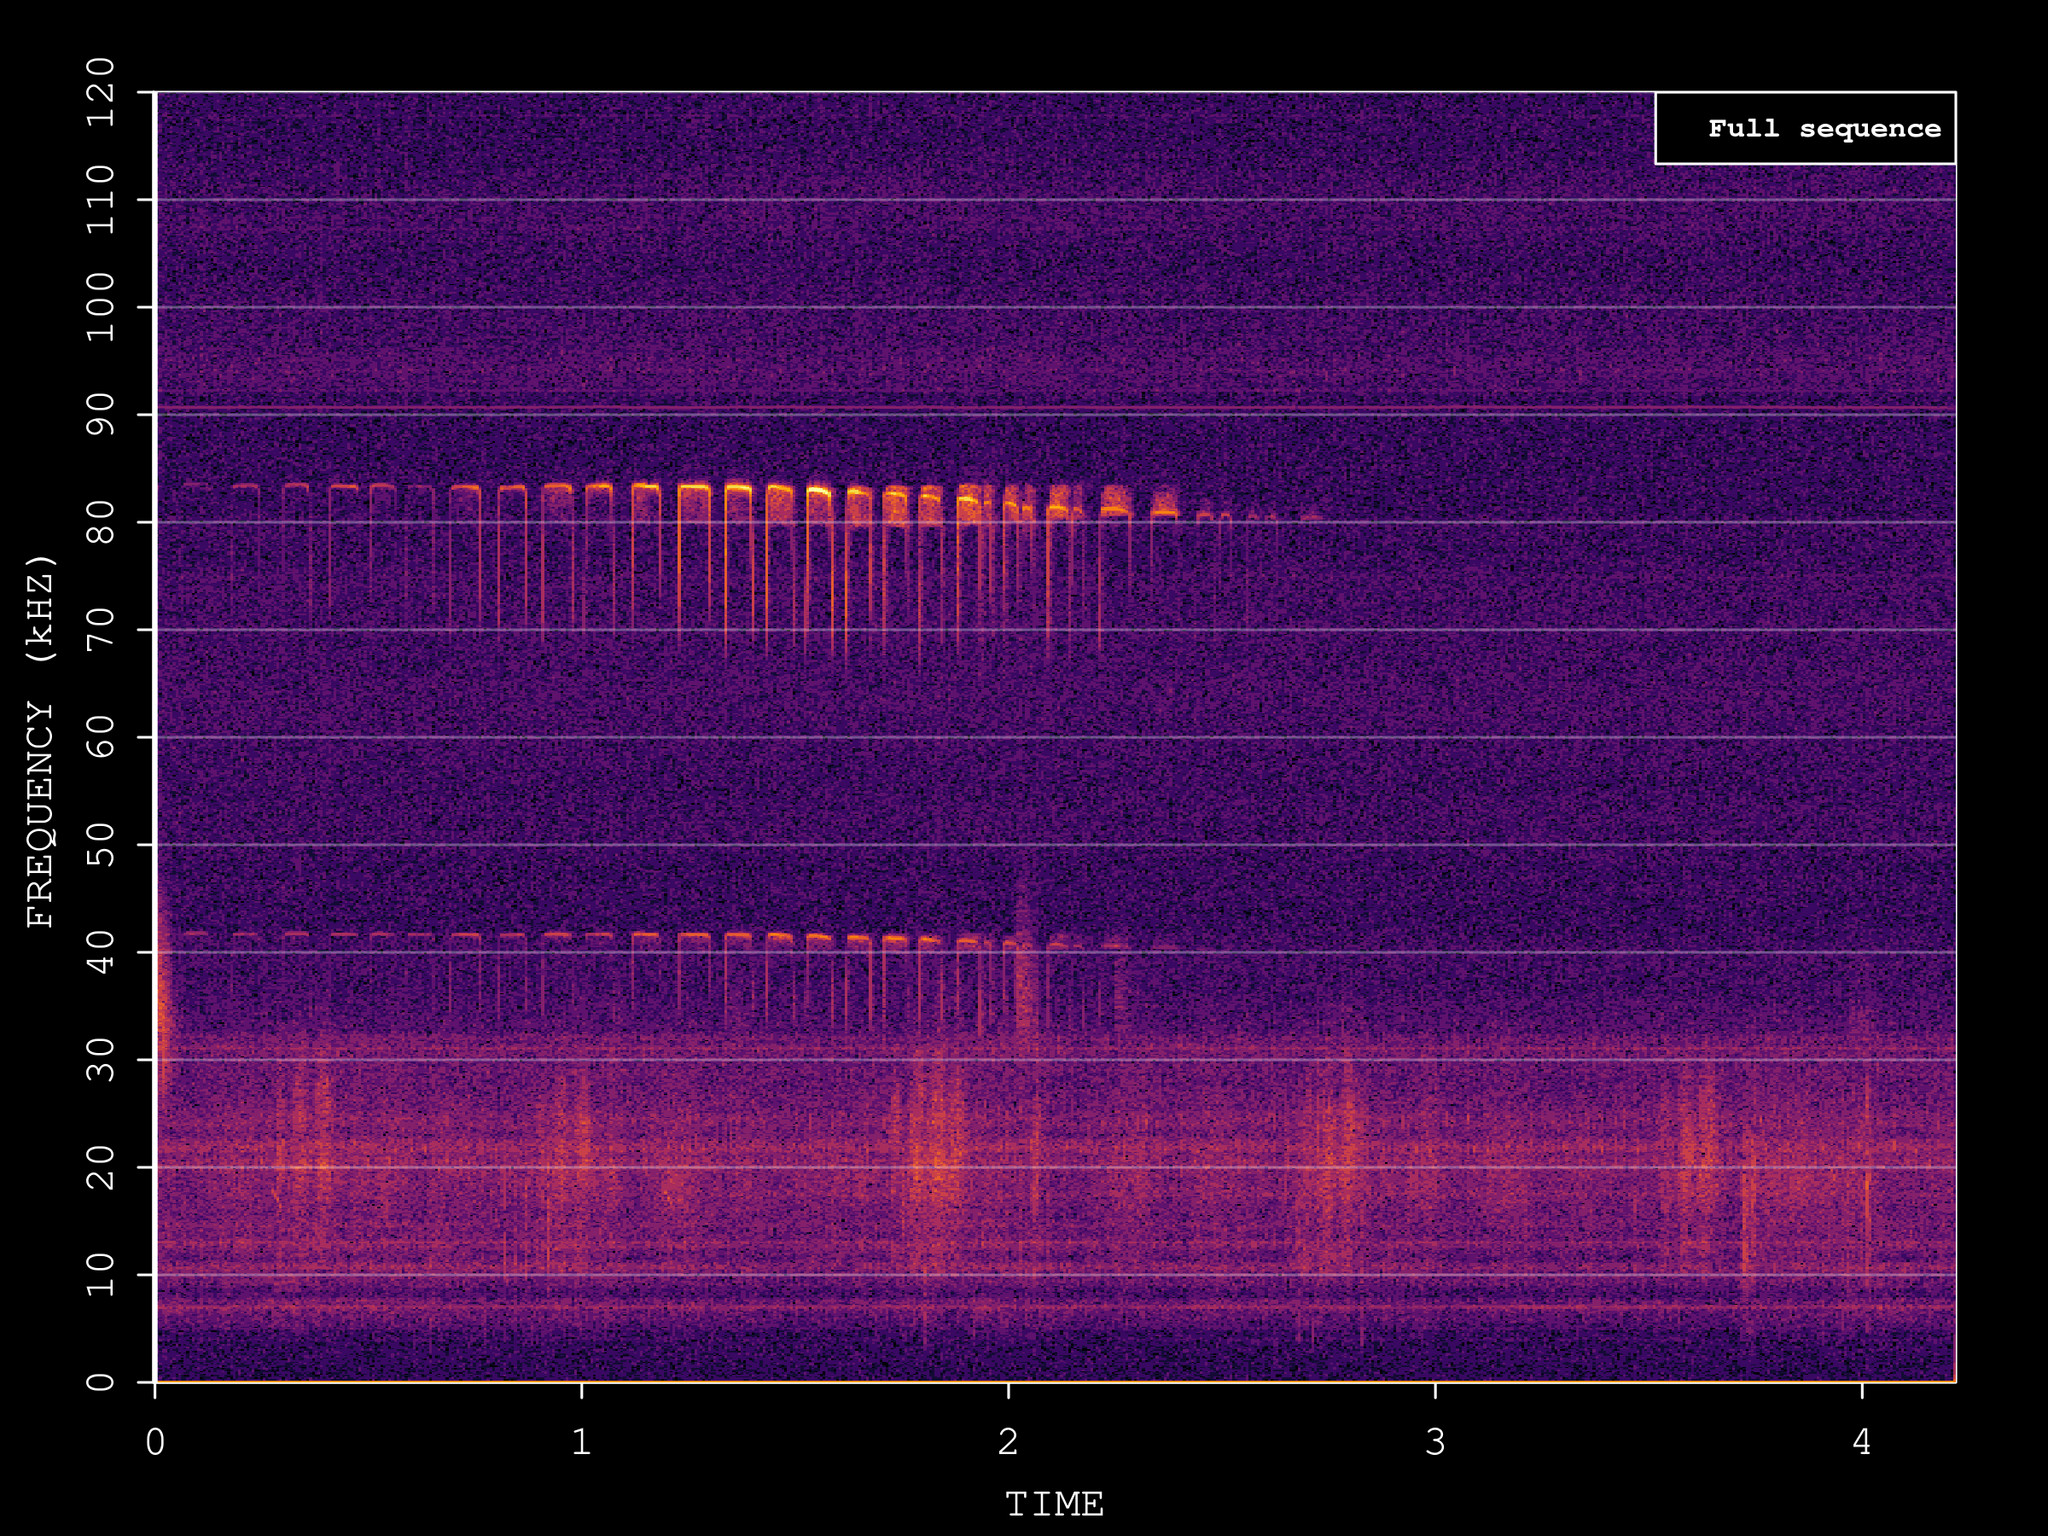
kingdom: Animalia
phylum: Chordata
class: Mammalia
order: Chiroptera
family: Rhinolophidae
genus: Rhinolophus
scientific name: Rhinolophus ferrumequinum
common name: Greater horseshoe bat
